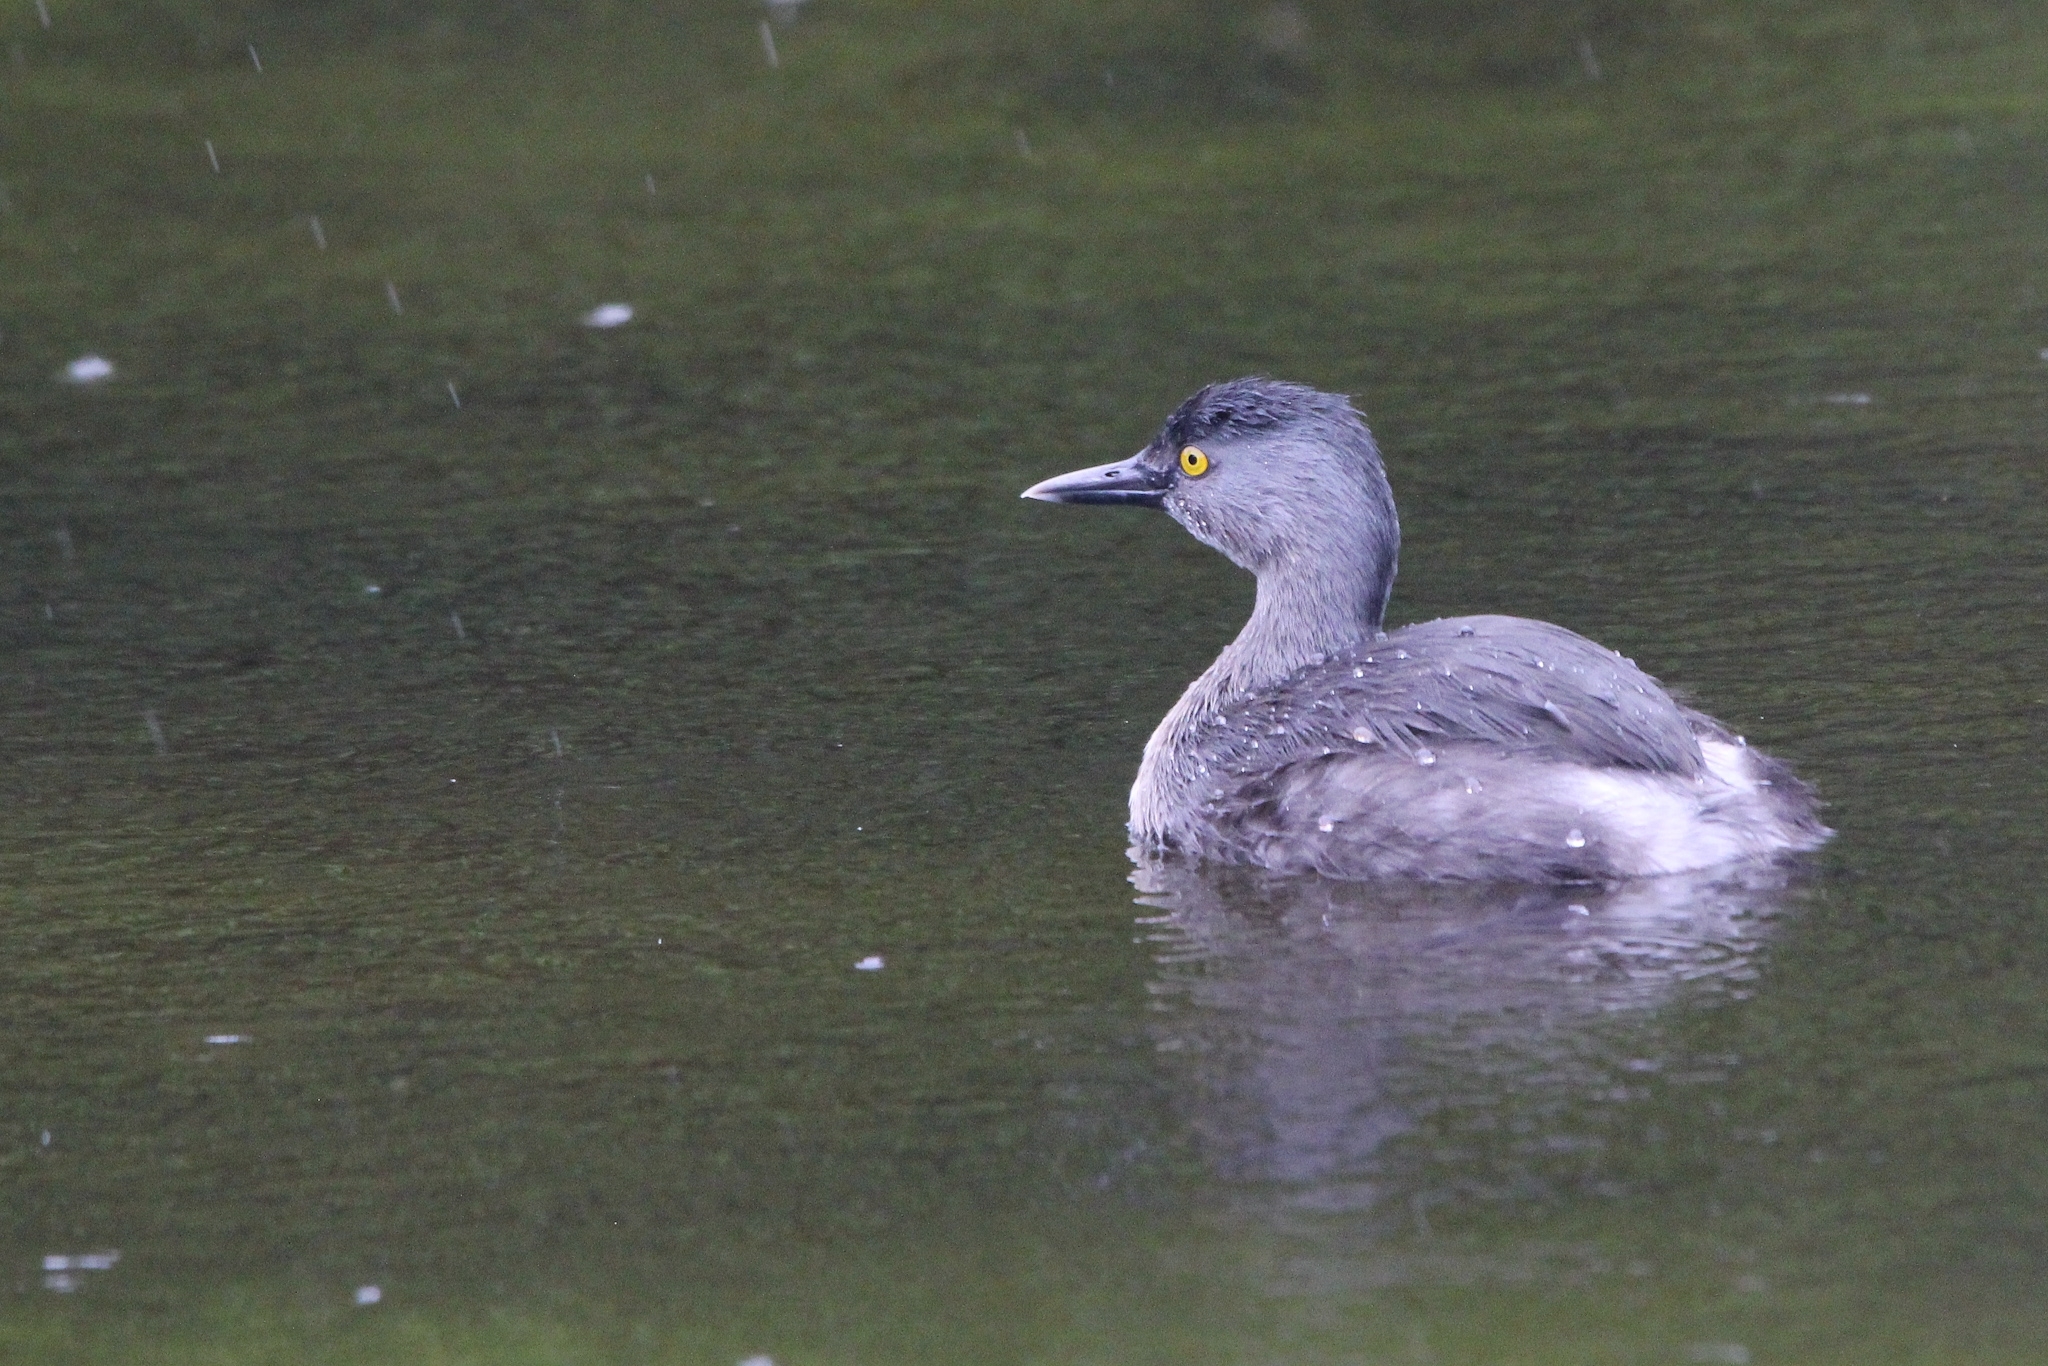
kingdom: Animalia
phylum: Chordata
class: Aves
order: Podicipediformes
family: Podicipedidae
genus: Tachybaptus
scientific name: Tachybaptus dominicus
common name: Least grebe
